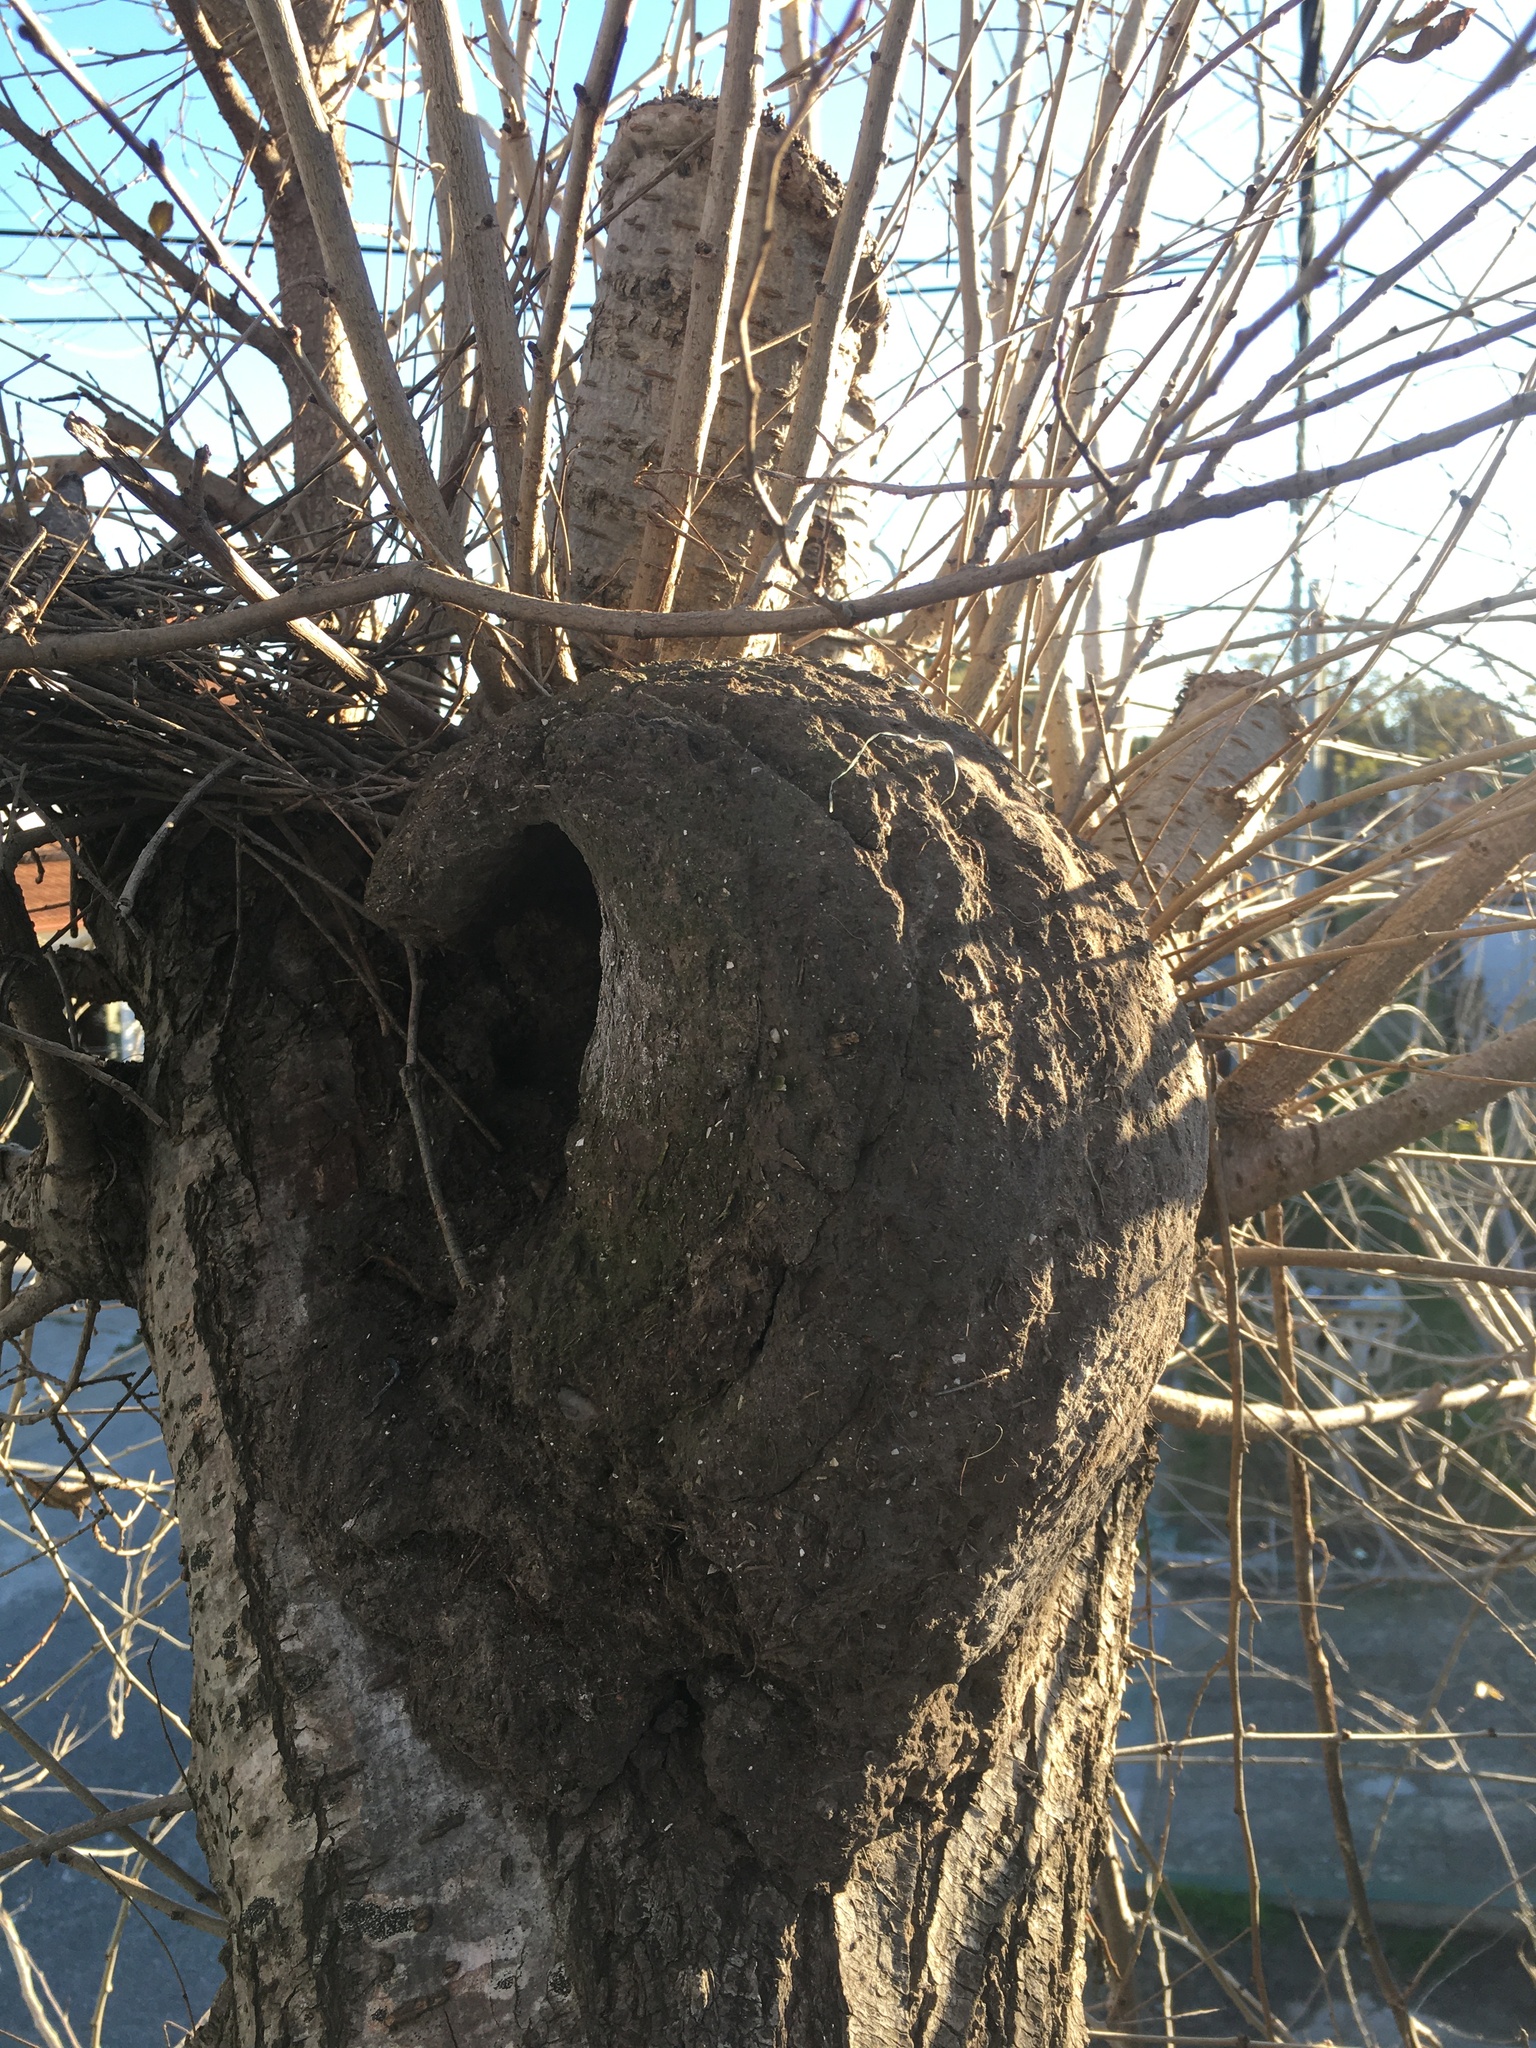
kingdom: Animalia
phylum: Chordata
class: Aves
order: Passeriformes
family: Furnariidae
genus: Furnarius
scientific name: Furnarius rufus
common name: Rufous hornero
